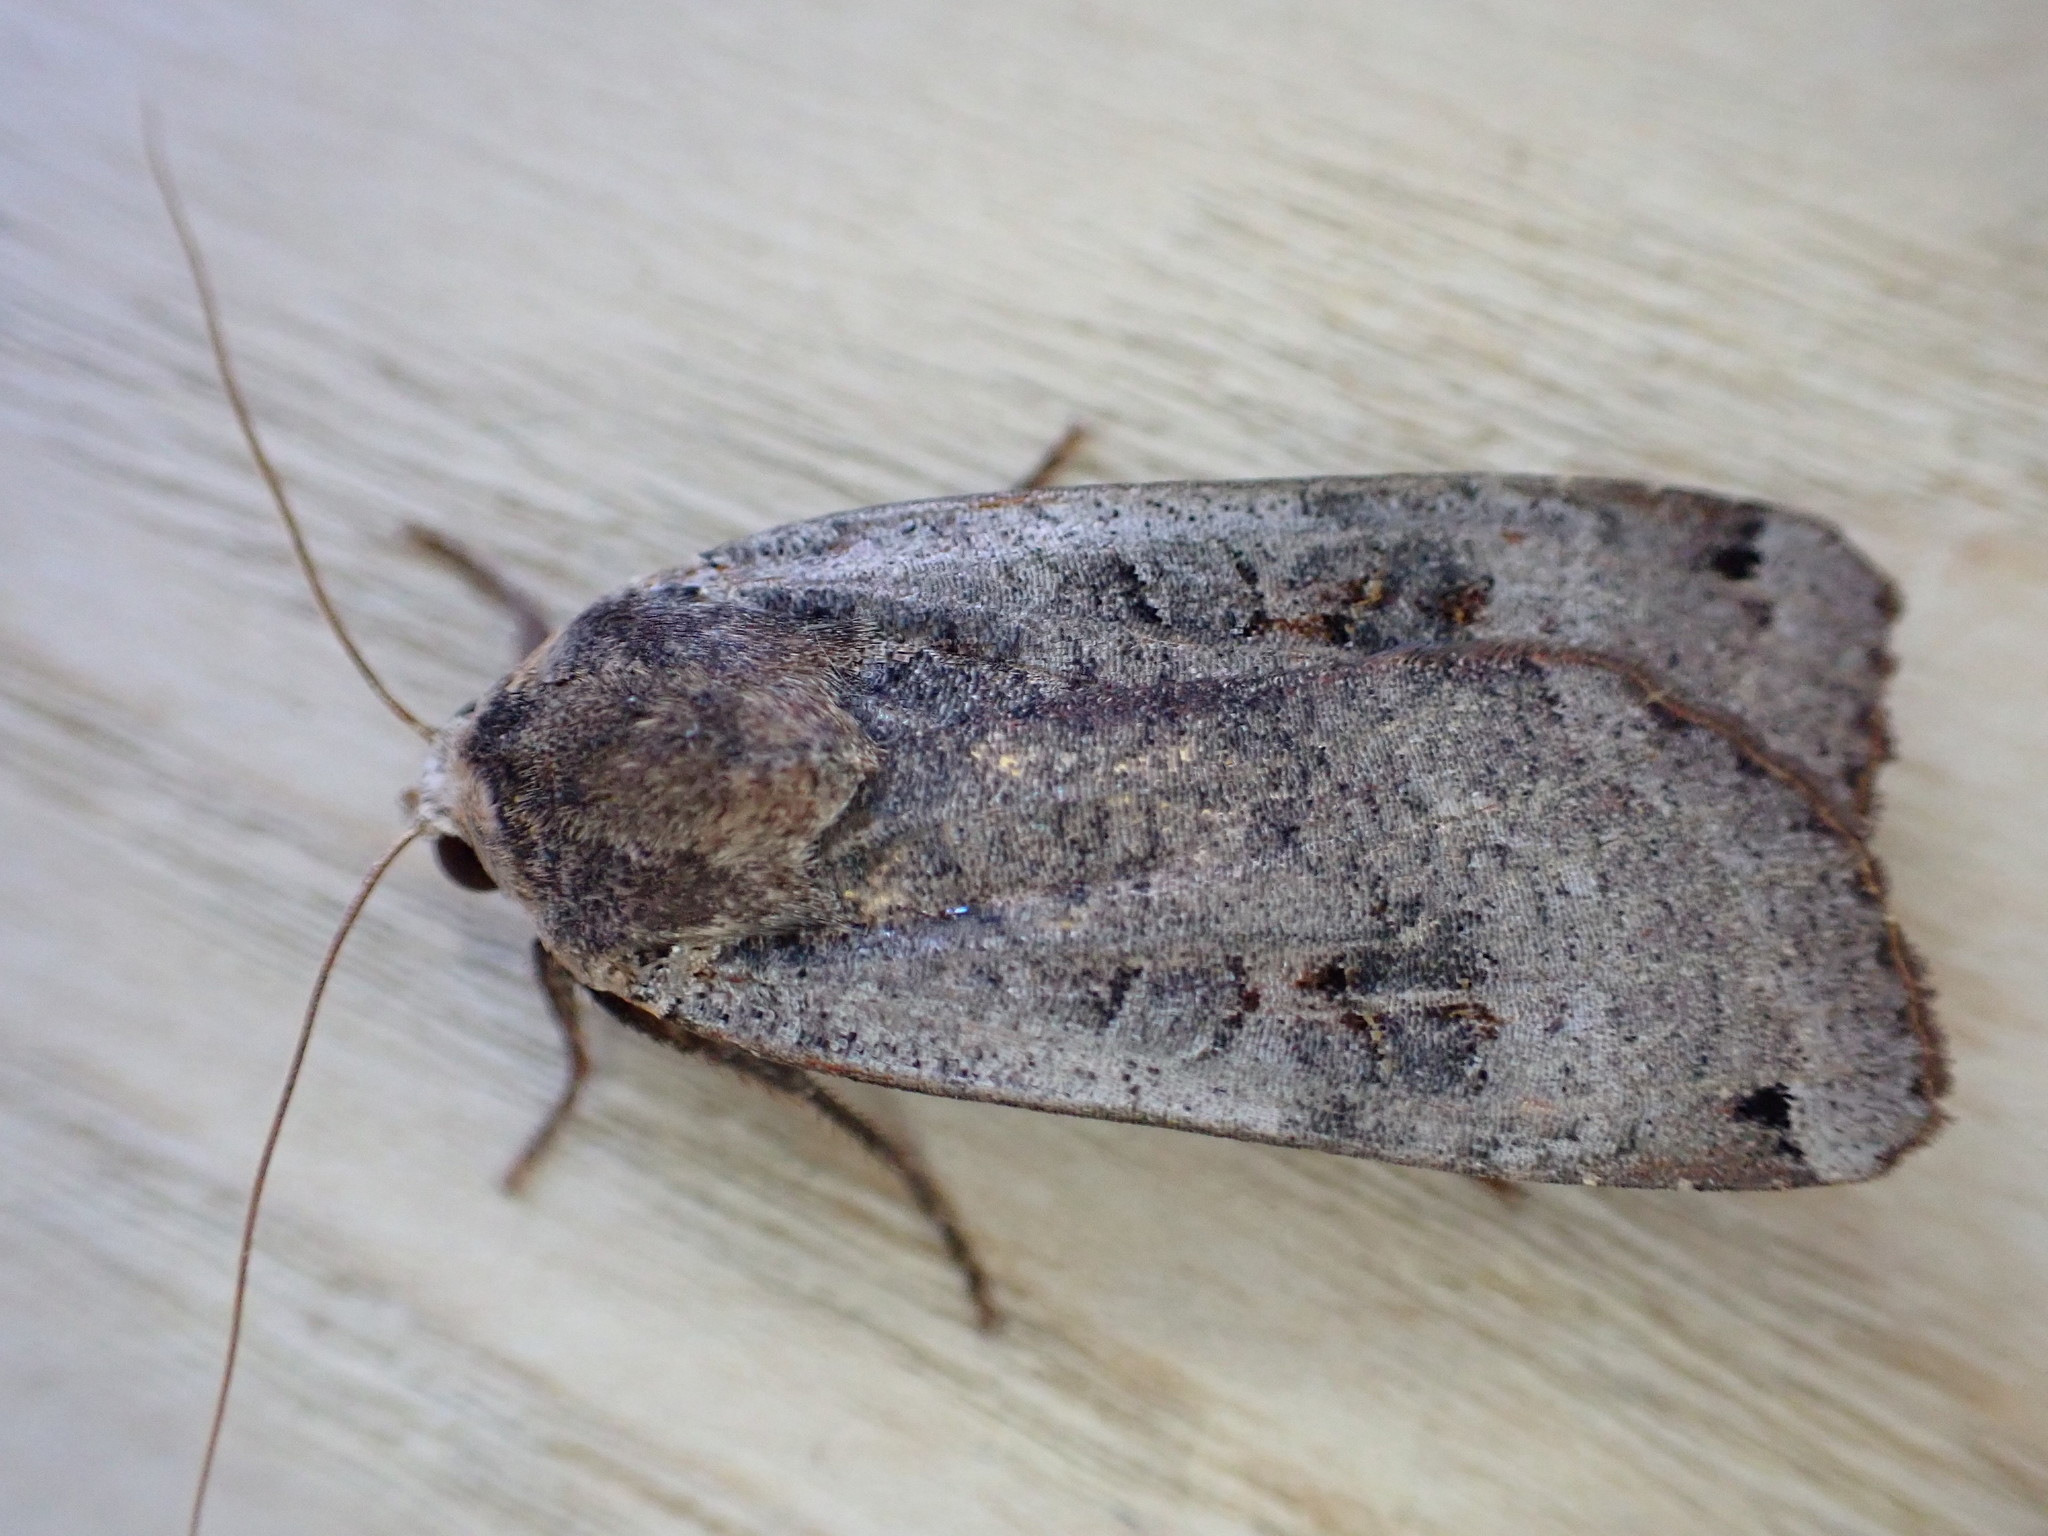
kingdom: Animalia
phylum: Arthropoda
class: Insecta
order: Lepidoptera
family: Noctuidae
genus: Noctua
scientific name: Noctua pronuba
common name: Large yellow underwing
